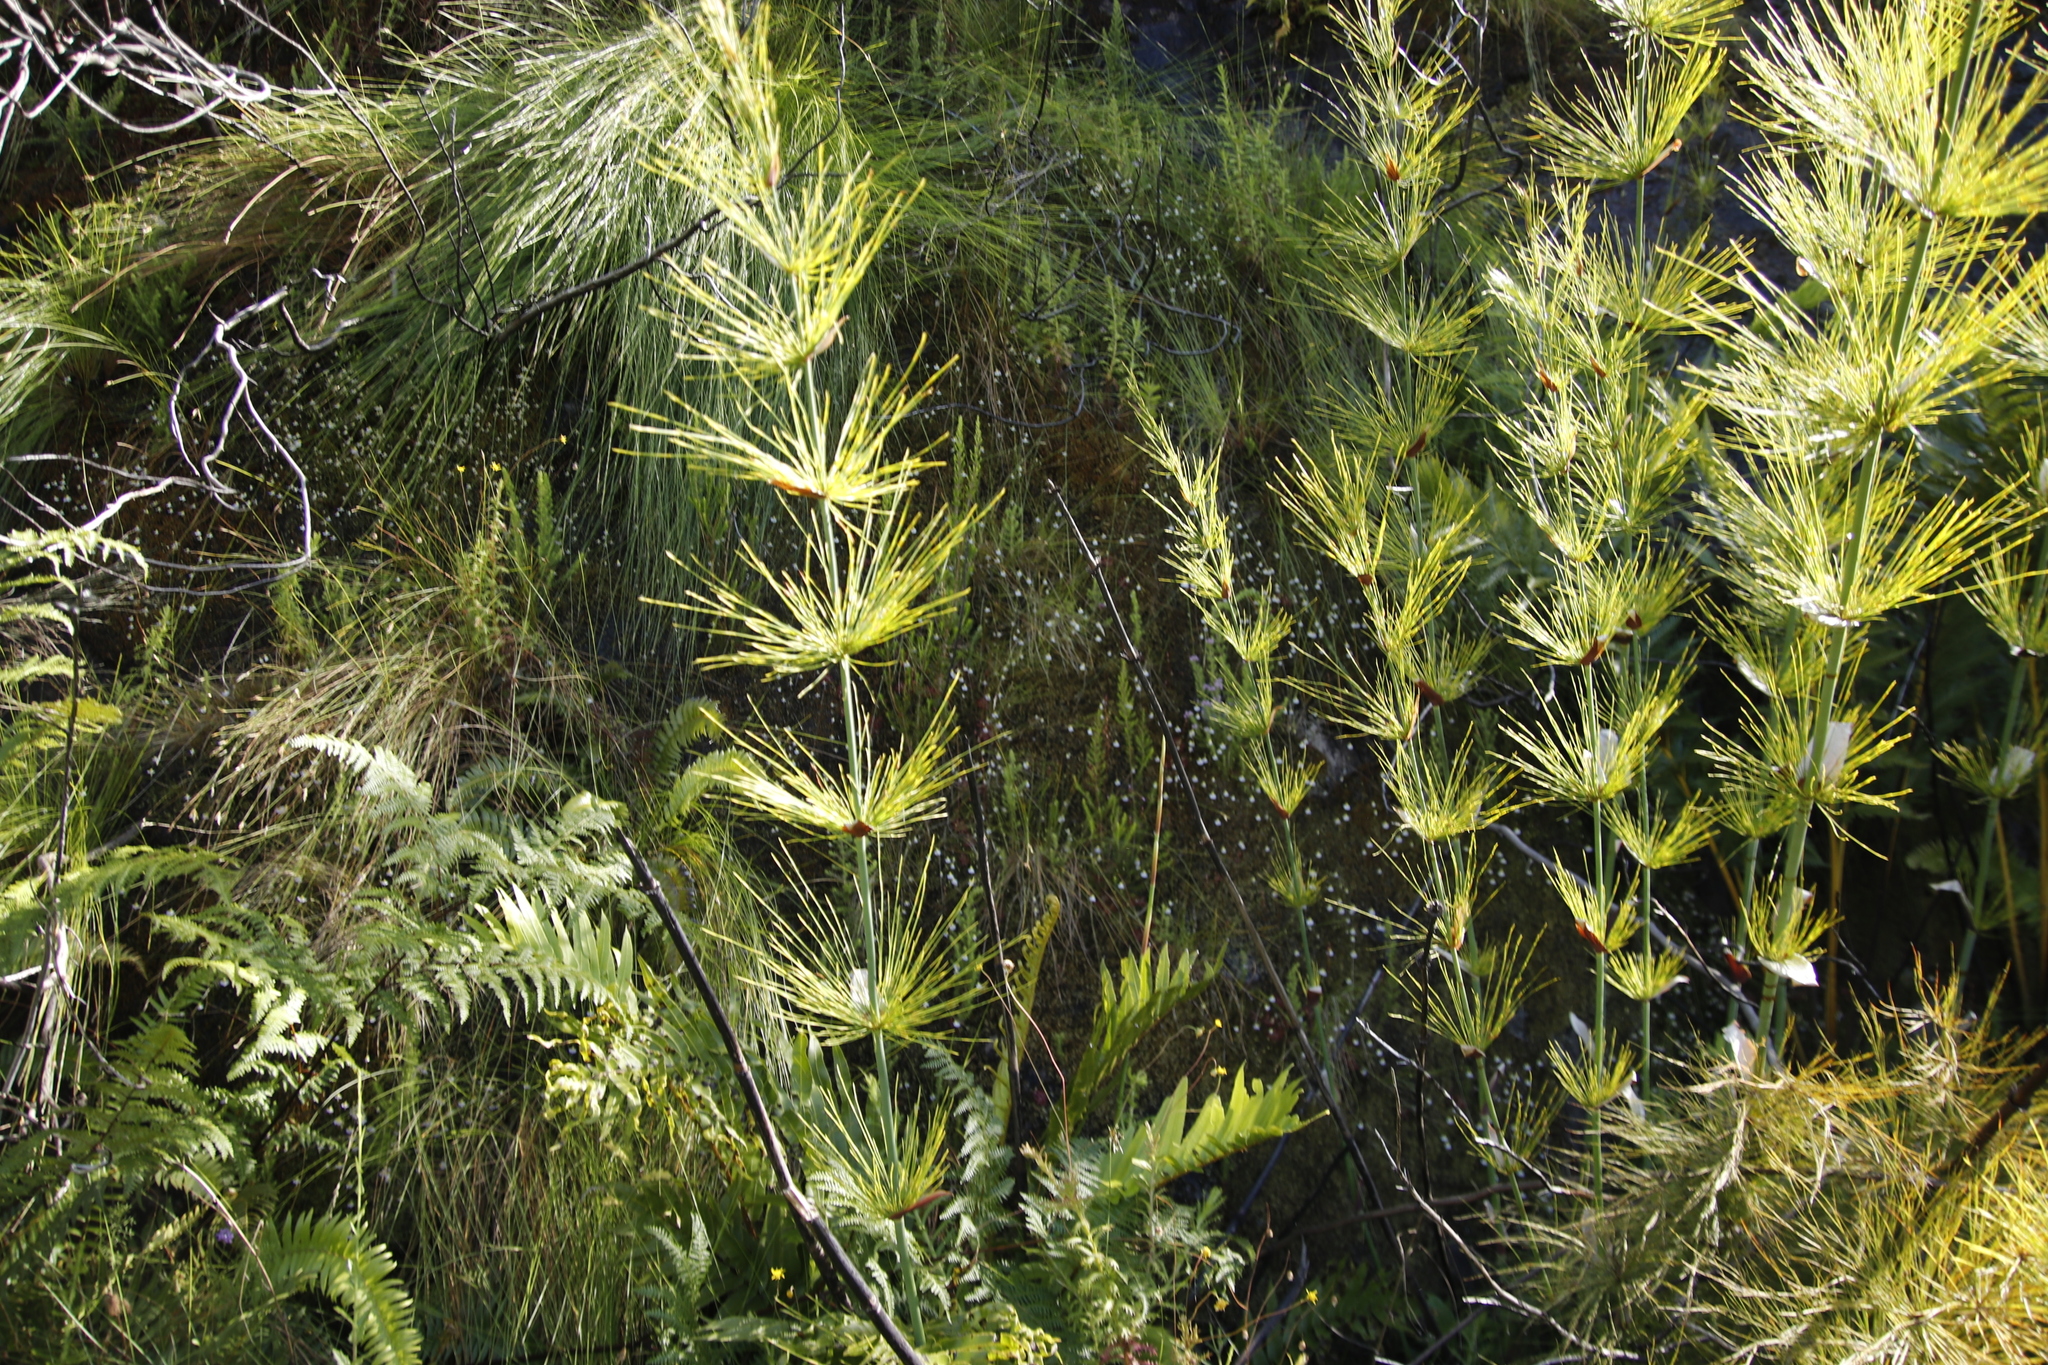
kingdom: Plantae
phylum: Tracheophyta
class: Liliopsida
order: Poales
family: Restionaceae
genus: Elegia
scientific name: Elegia capensis
